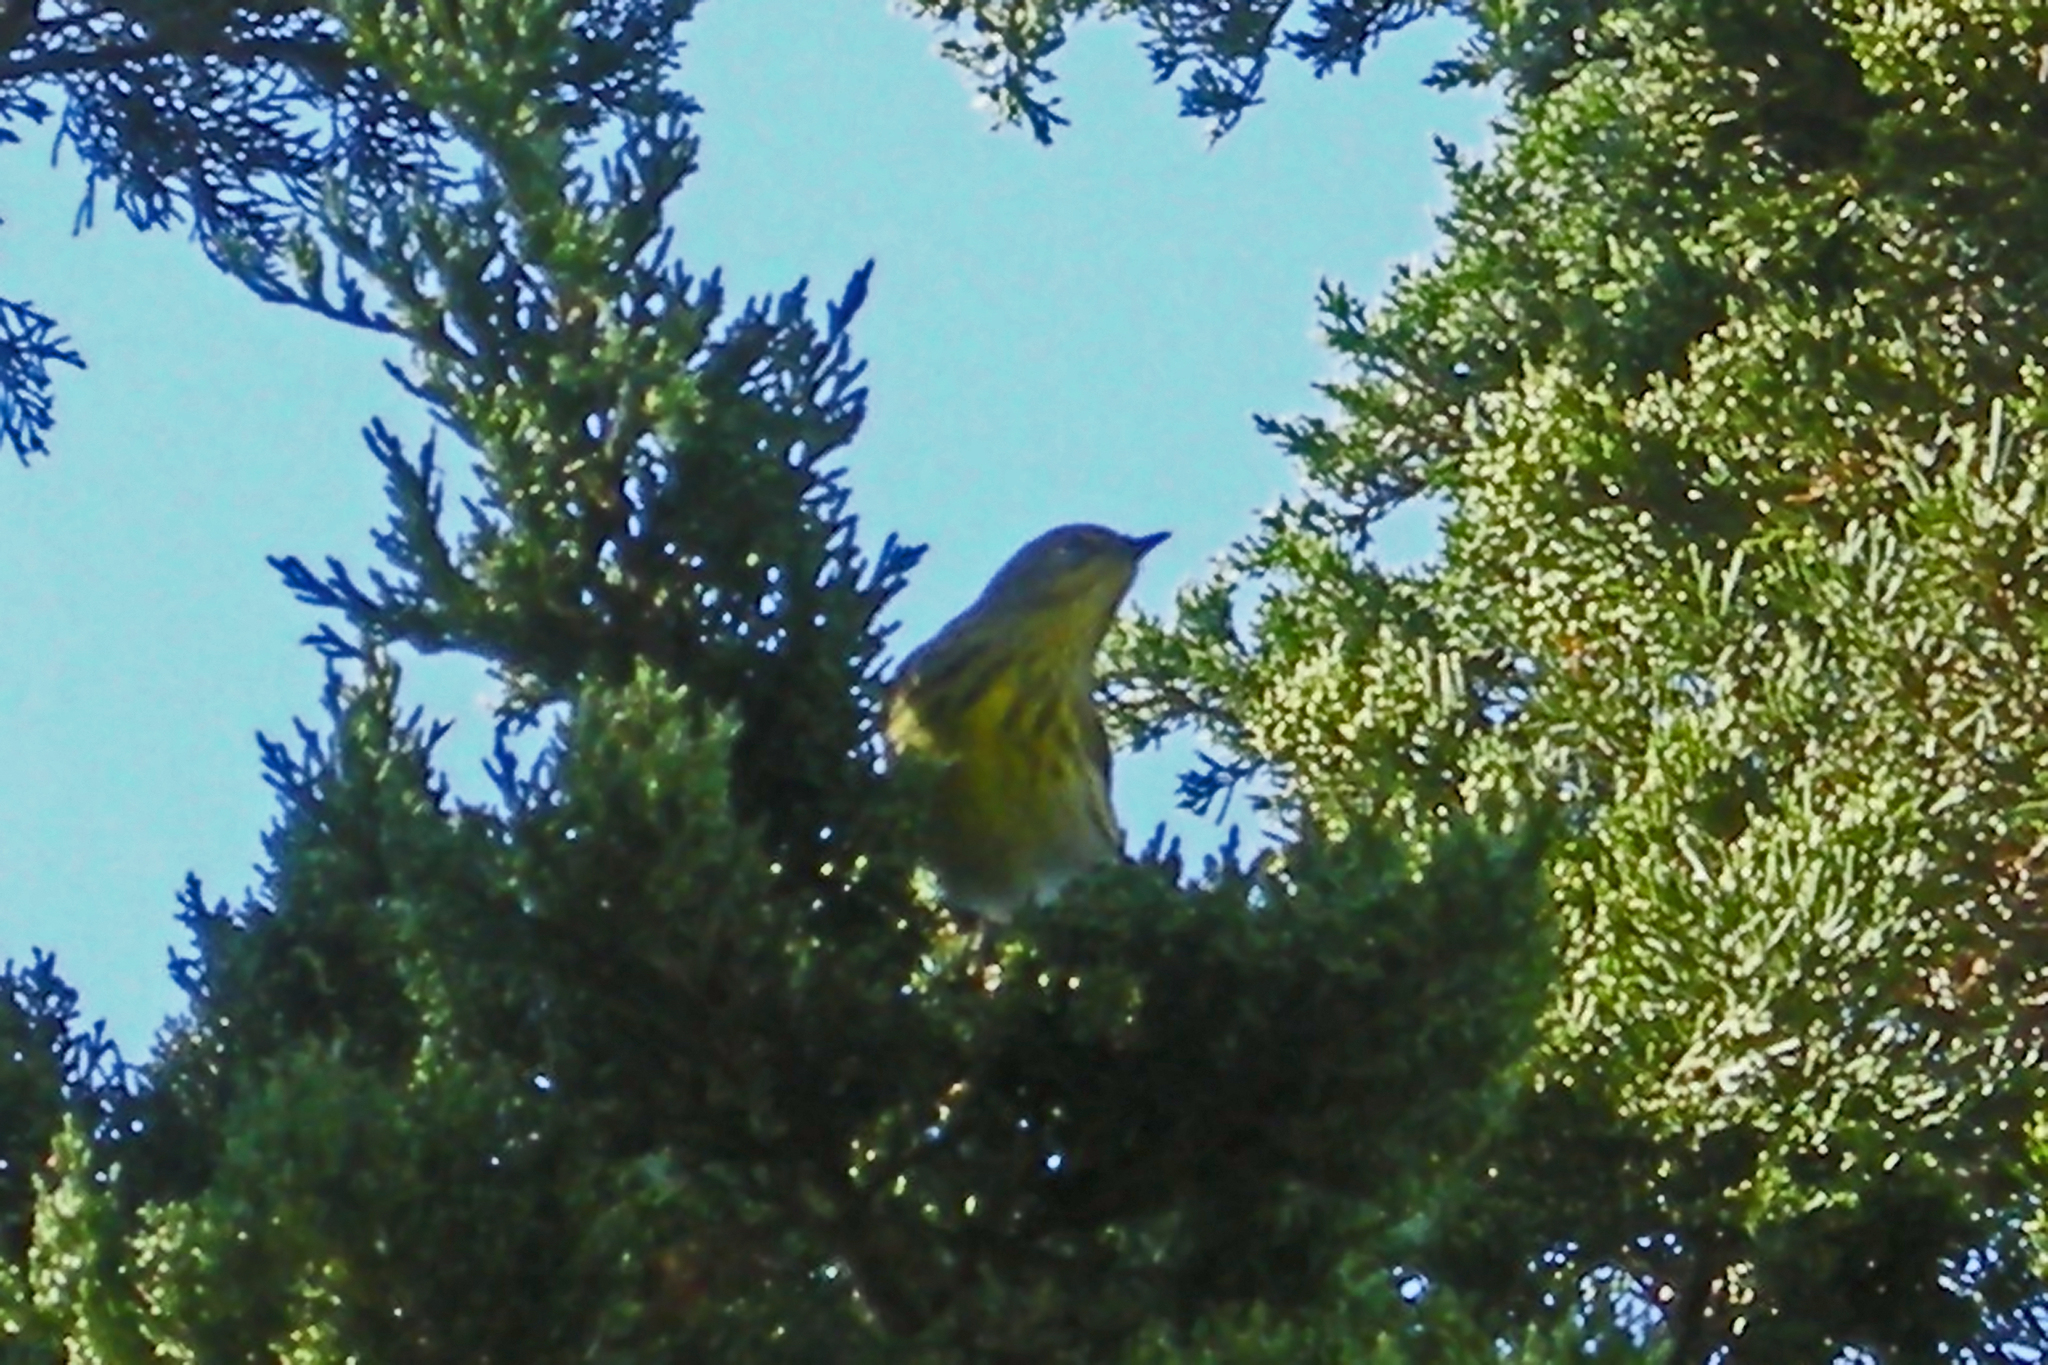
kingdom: Animalia
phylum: Chordata
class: Aves
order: Passeriformes
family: Parulidae
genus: Setophaga
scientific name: Setophaga tigrina
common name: Cape may warbler
